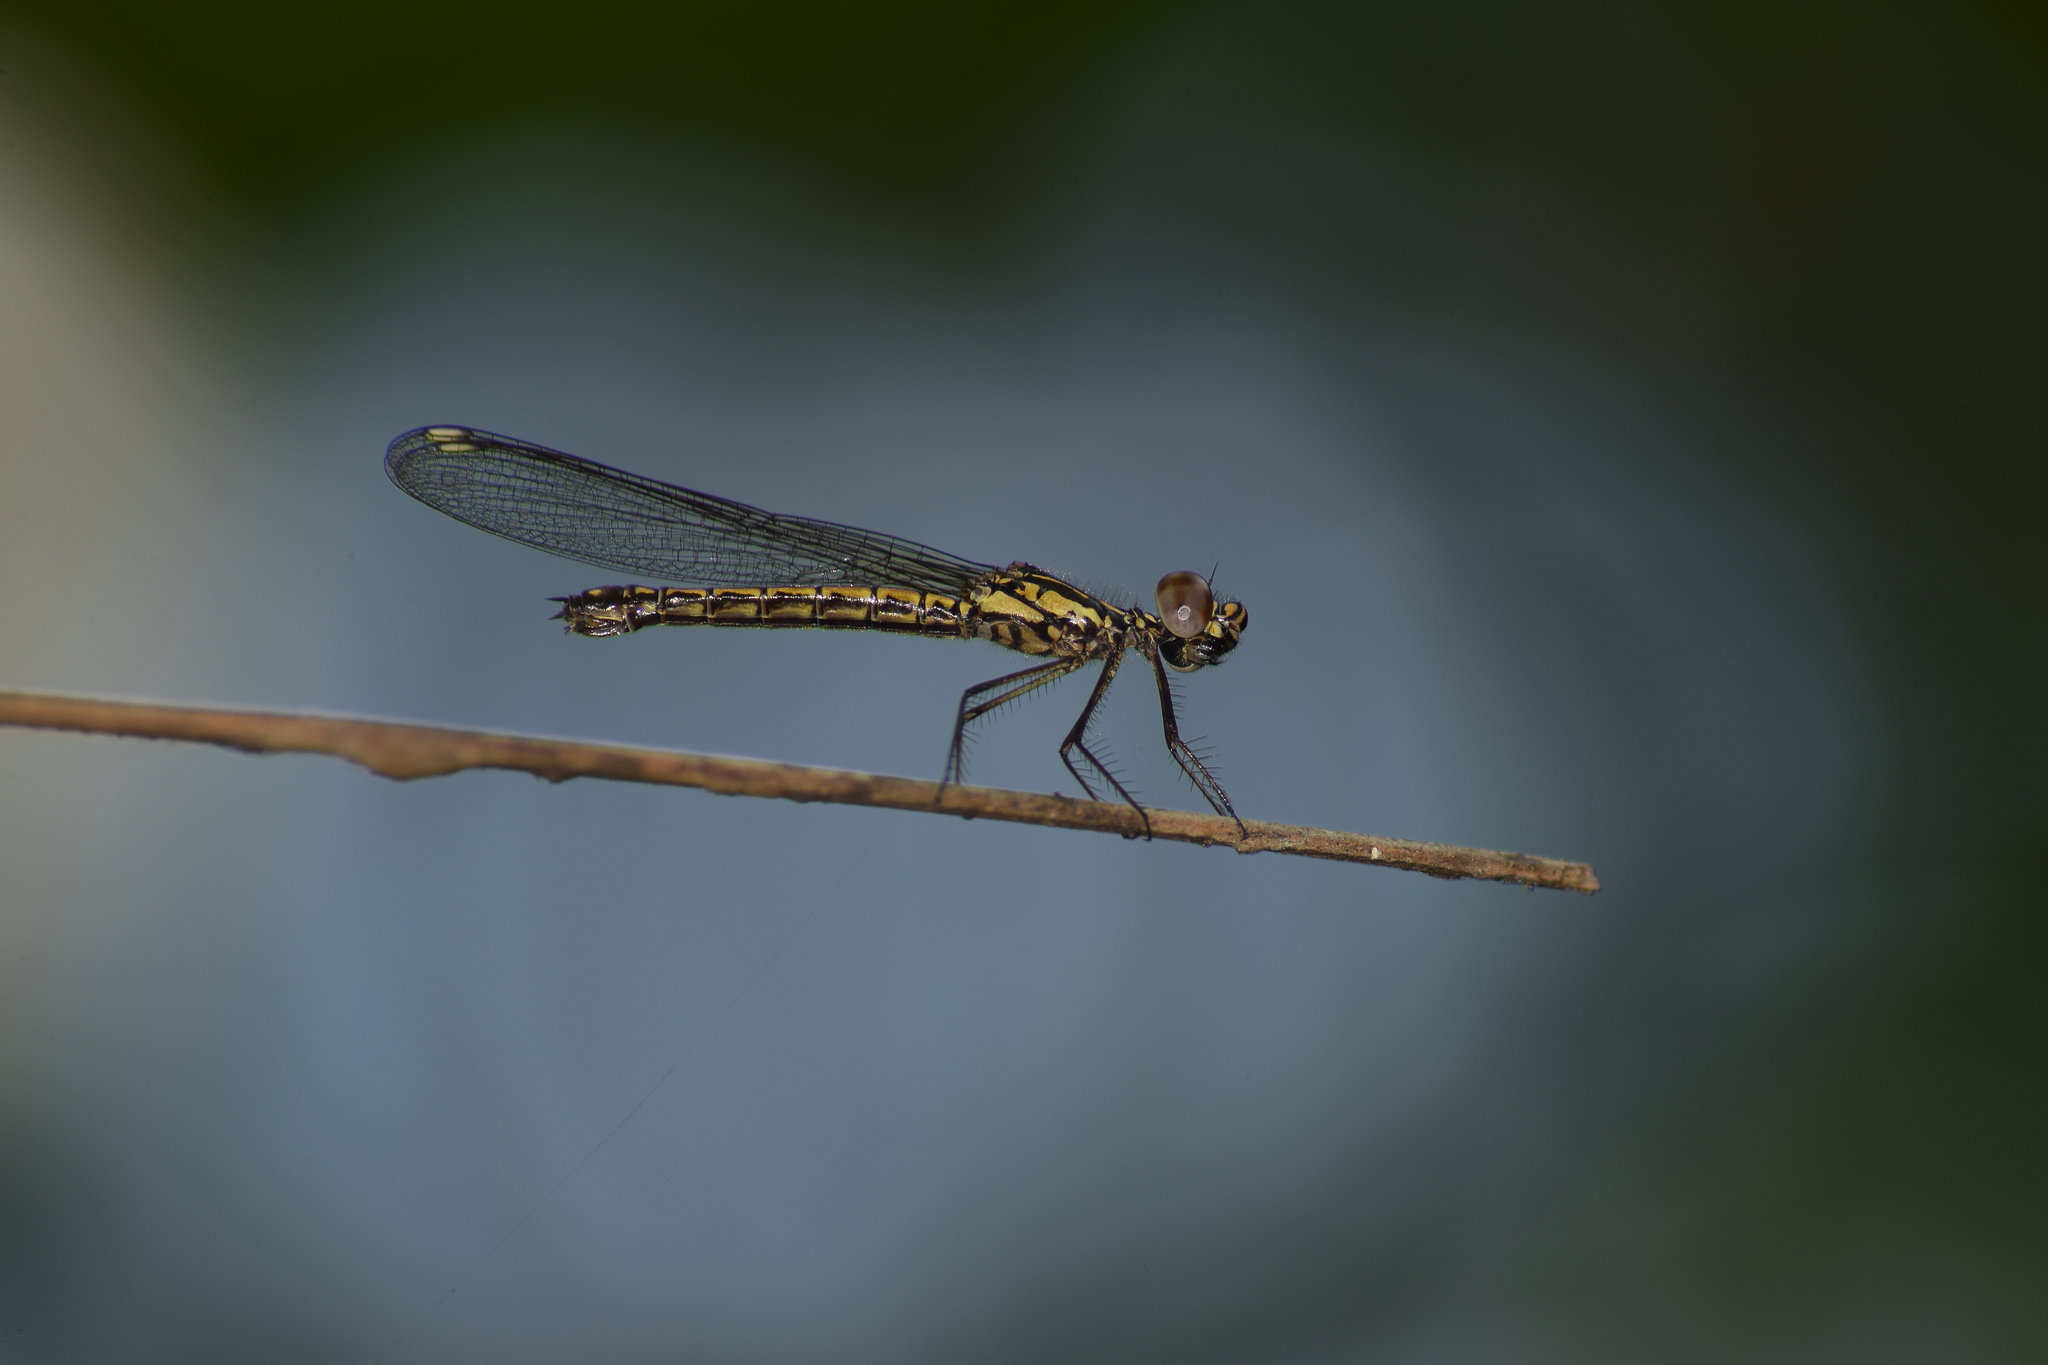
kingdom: Animalia
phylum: Arthropoda
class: Insecta
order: Odonata
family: Chlorocyphidae
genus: Libellago
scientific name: Libellago indica
